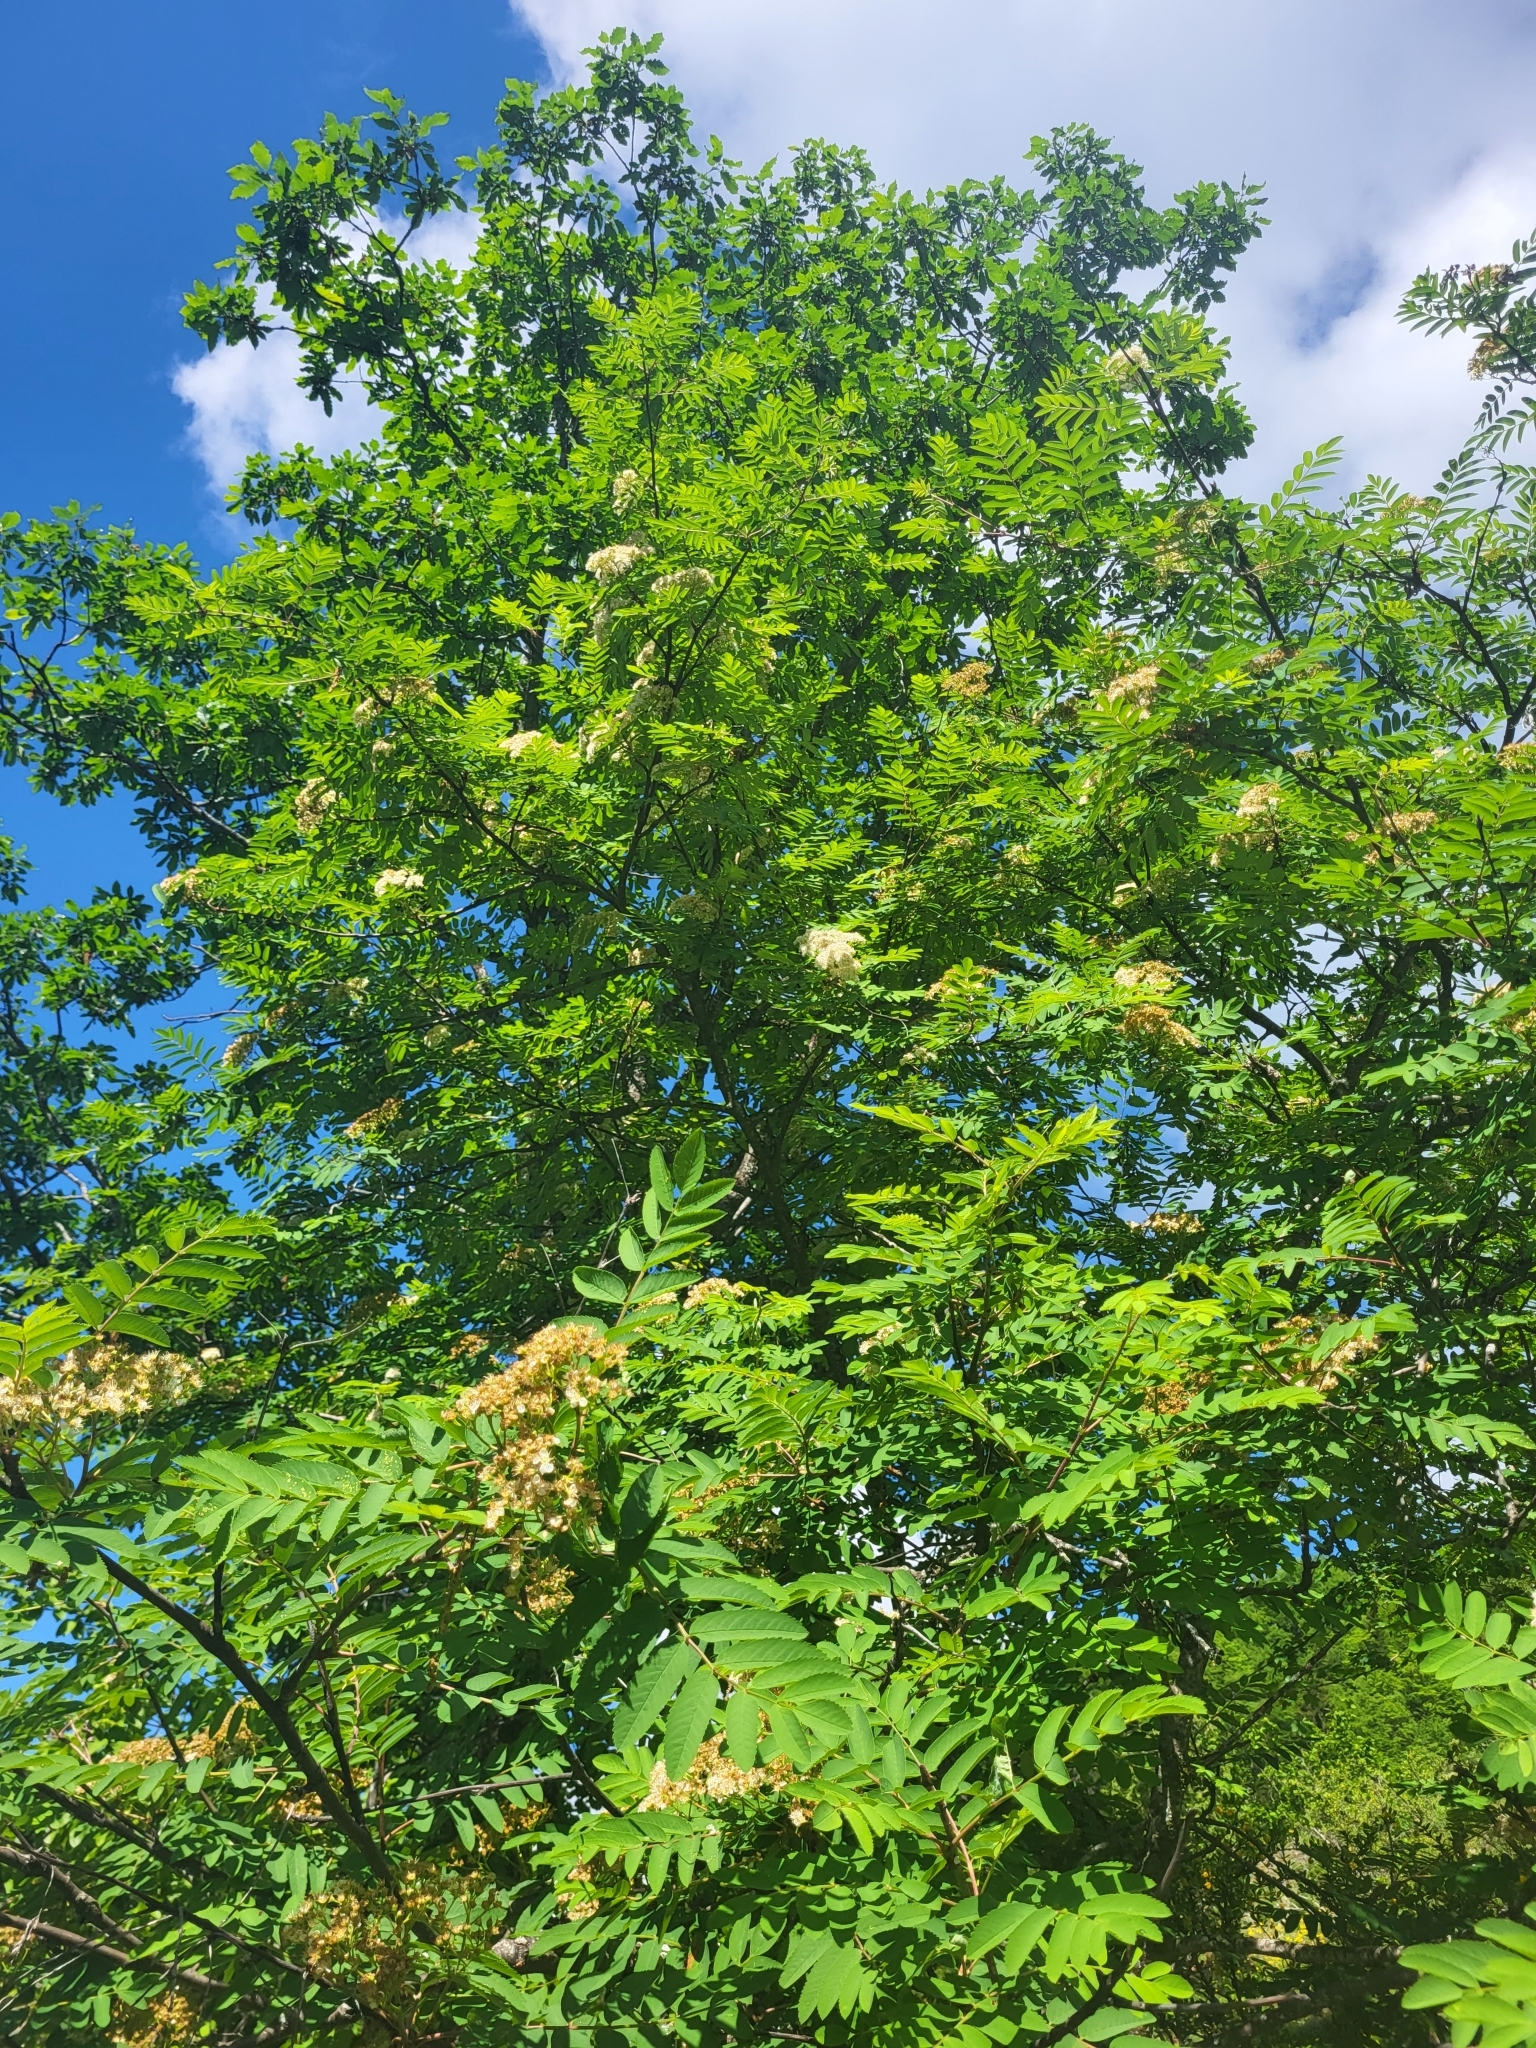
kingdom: Plantae
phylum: Tracheophyta
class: Magnoliopsida
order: Rosales
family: Rosaceae
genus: Sorbus
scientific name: Sorbus aucuparia
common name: Rowan
